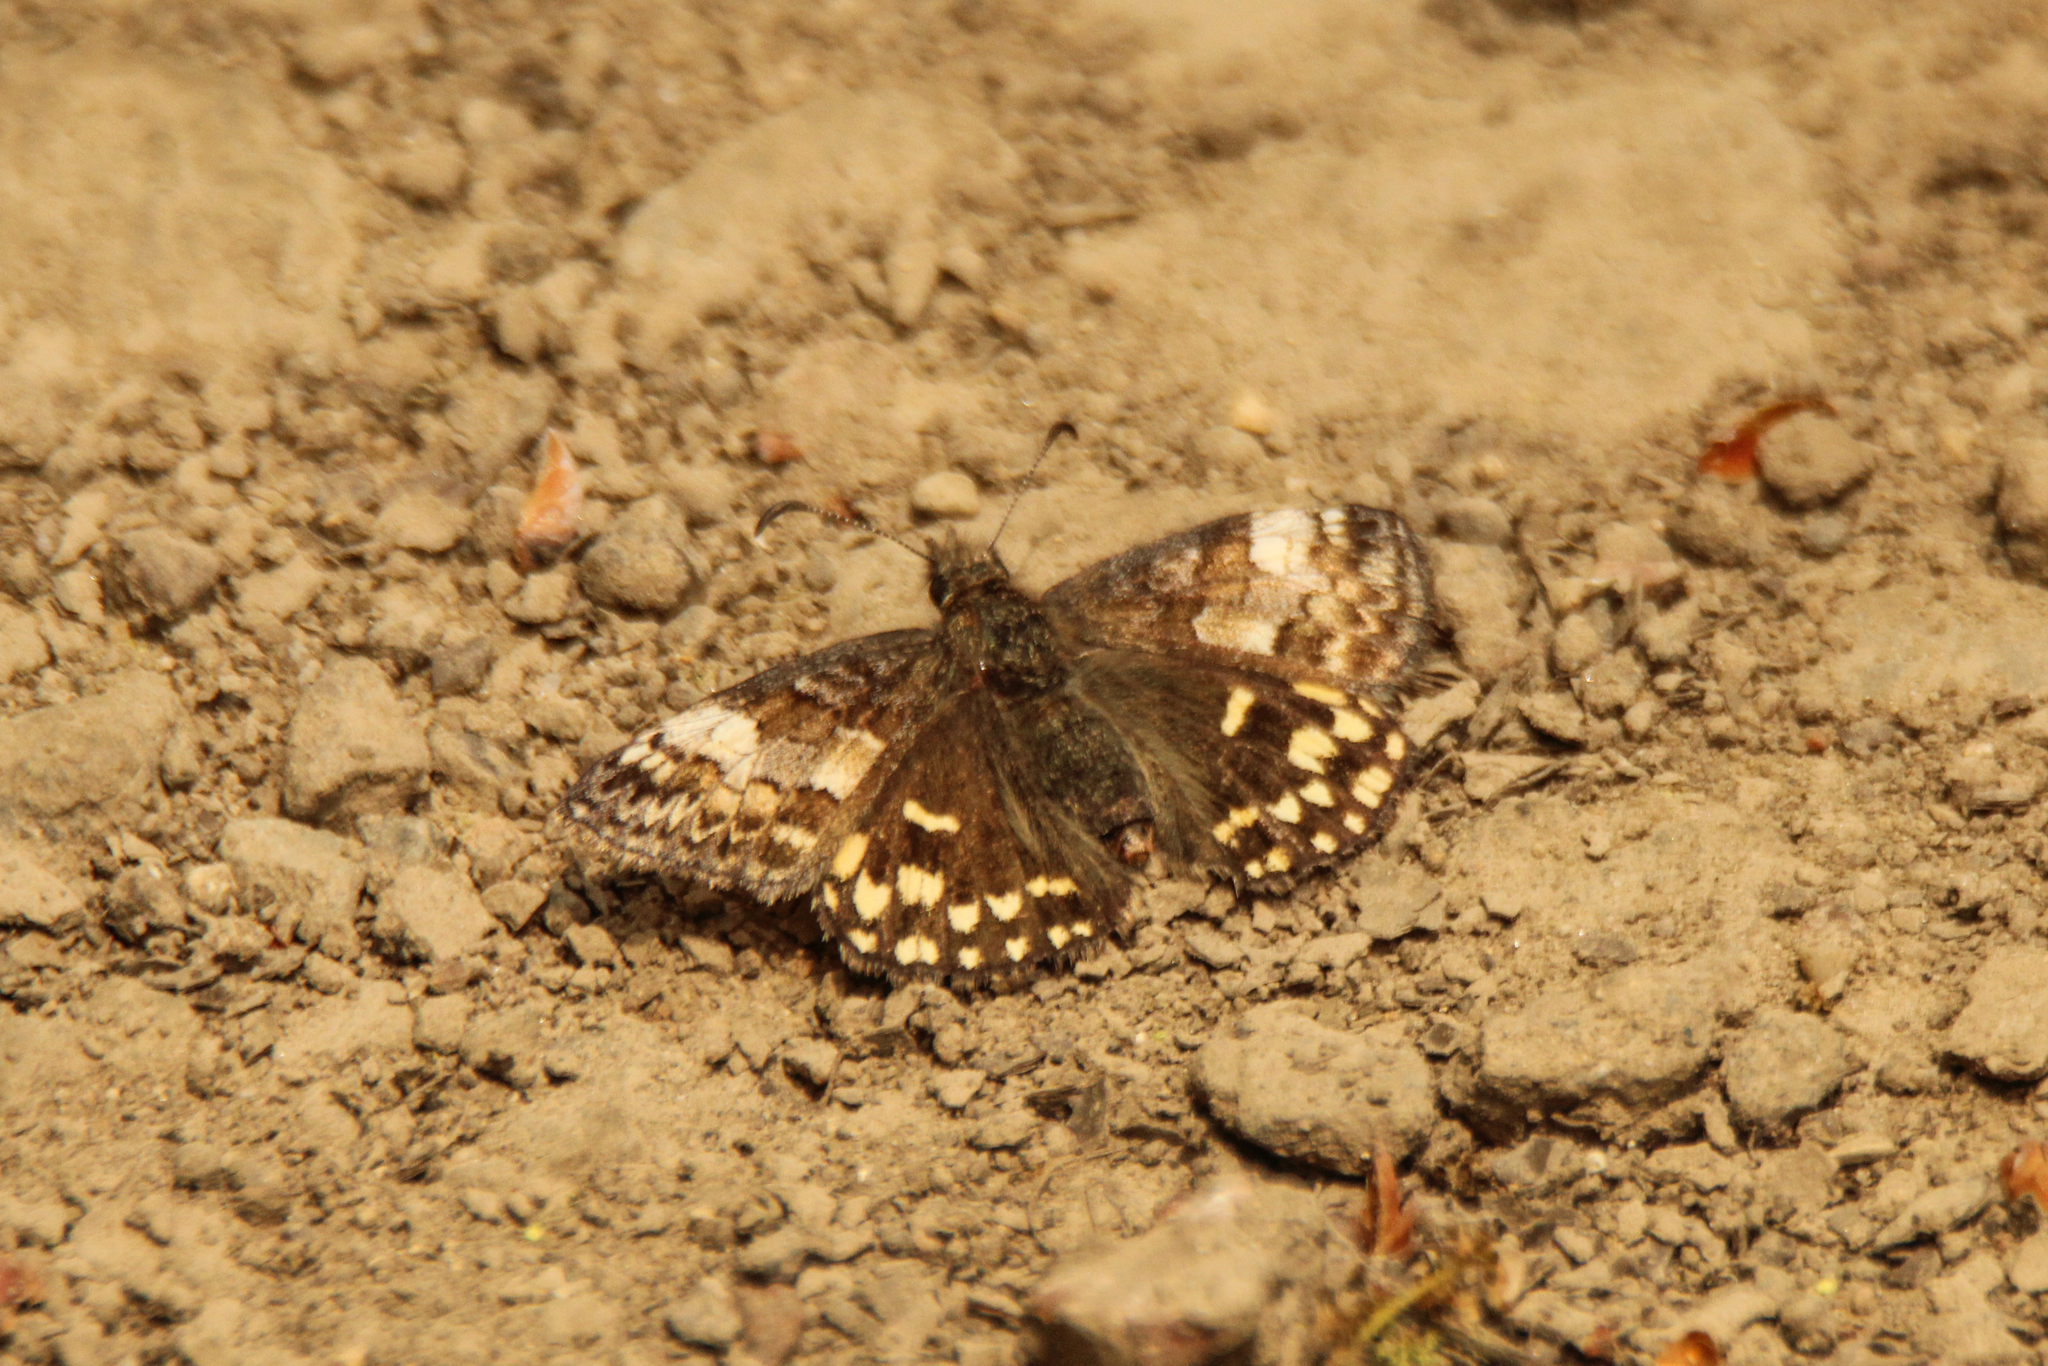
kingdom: Animalia
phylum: Arthropoda
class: Insecta
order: Lepidoptera
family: Hesperiidae
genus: Erynnis
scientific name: Erynnis montanus
